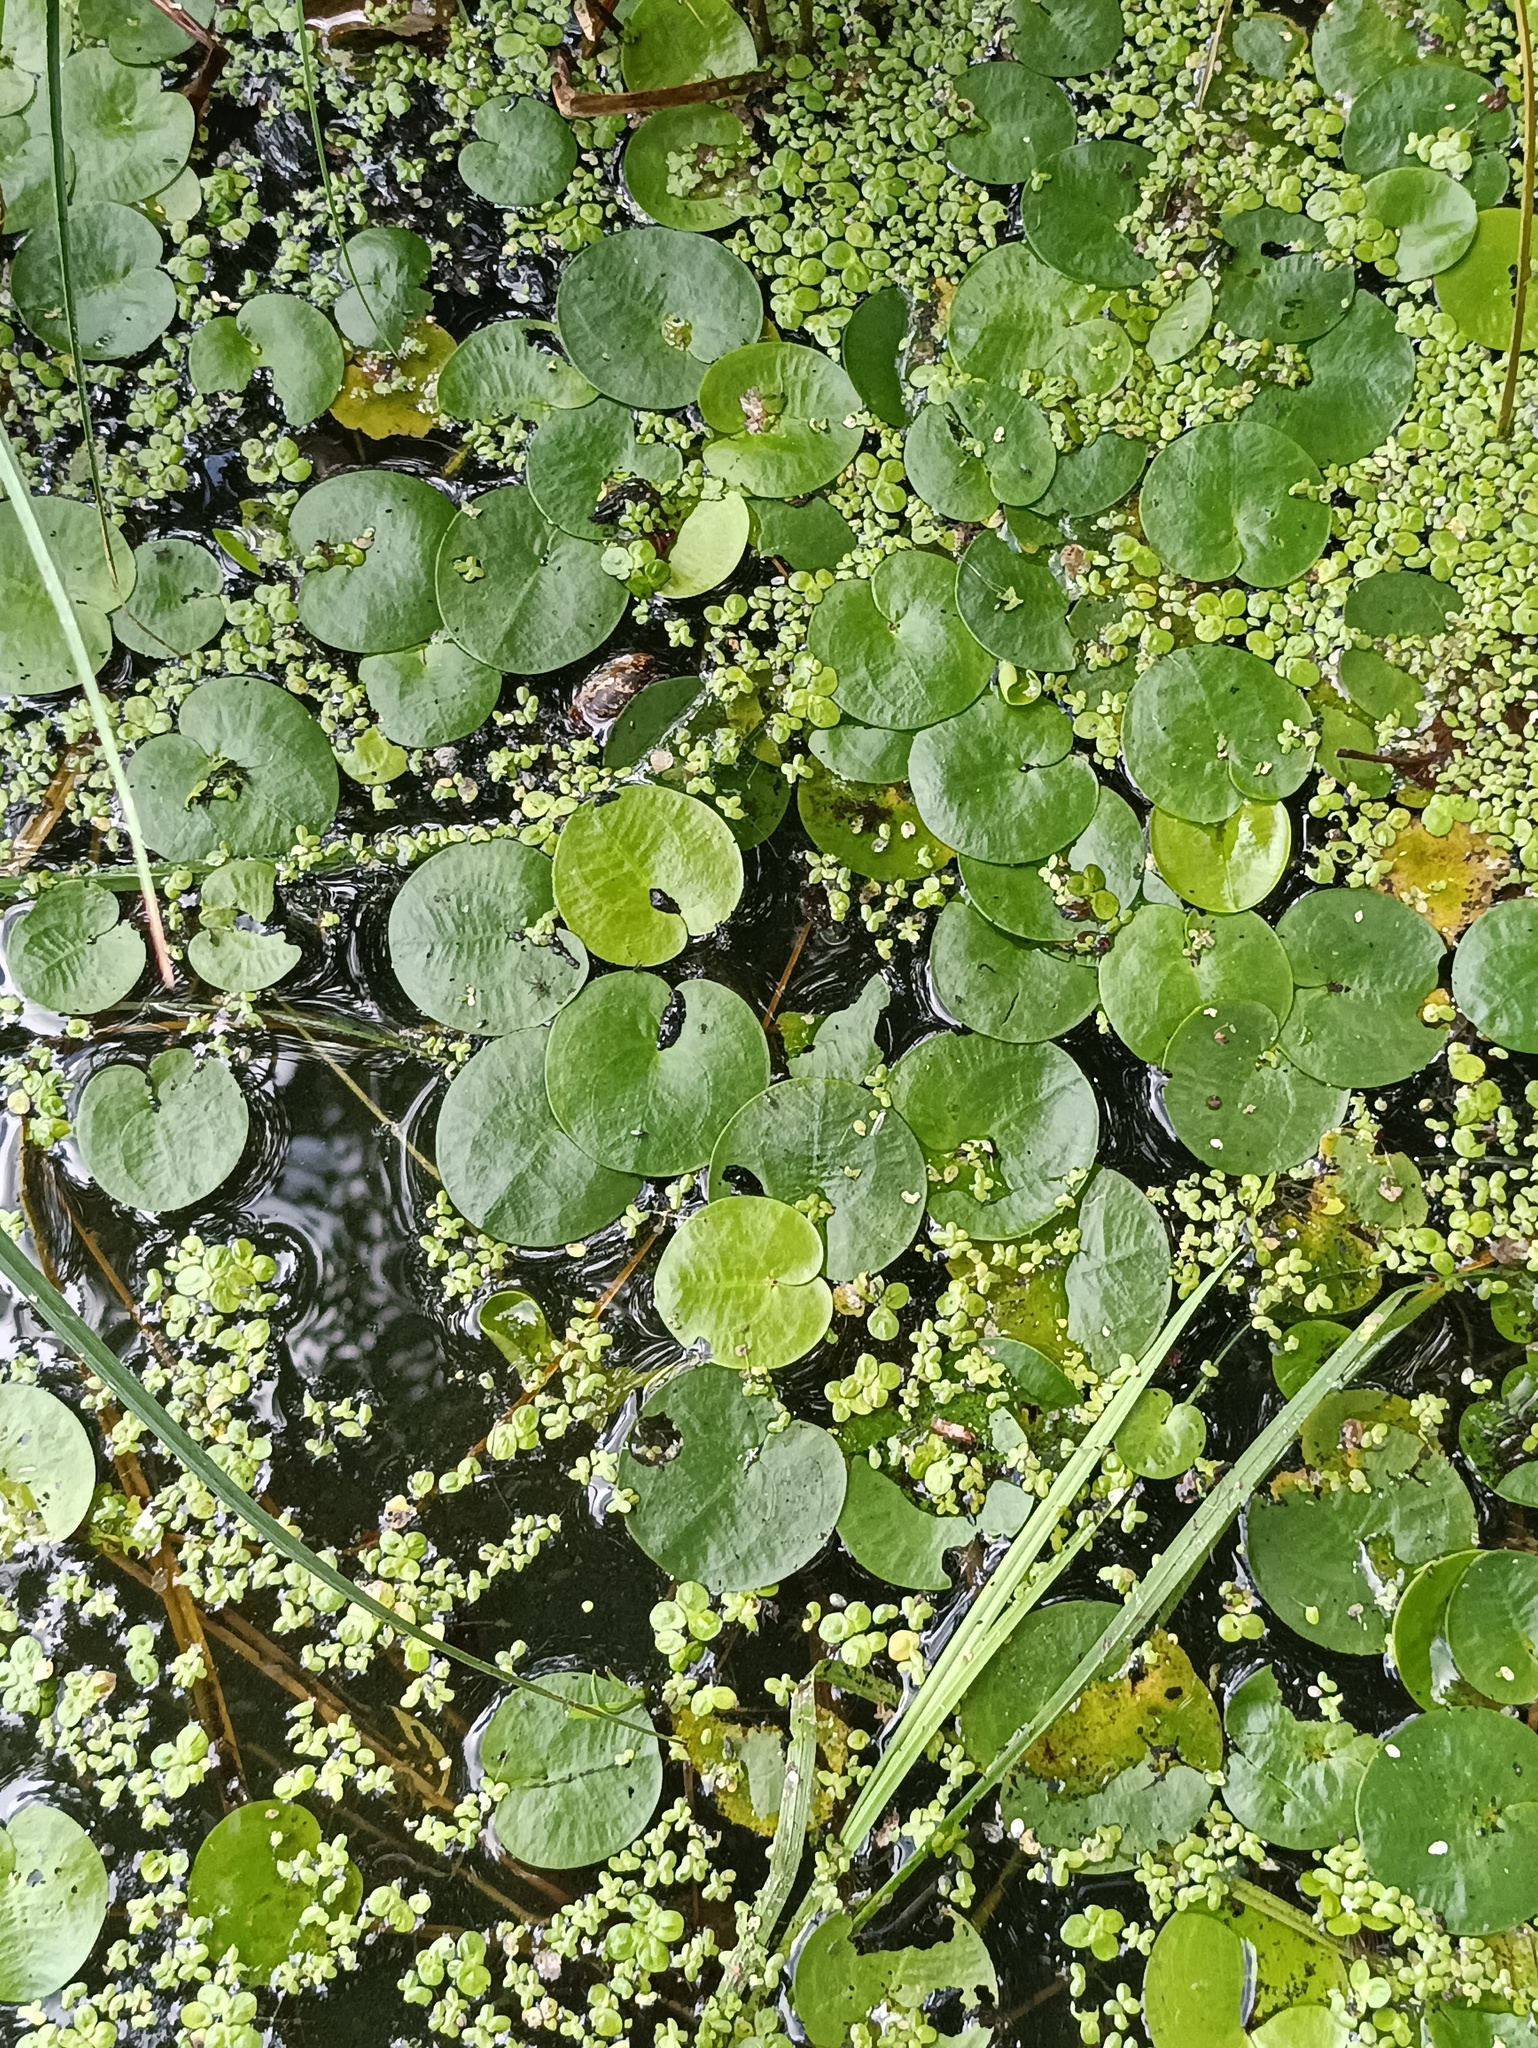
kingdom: Plantae
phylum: Tracheophyta
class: Liliopsida
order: Alismatales
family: Hydrocharitaceae
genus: Hydrocharis
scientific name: Hydrocharis morsus-ranae
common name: Frogbit
